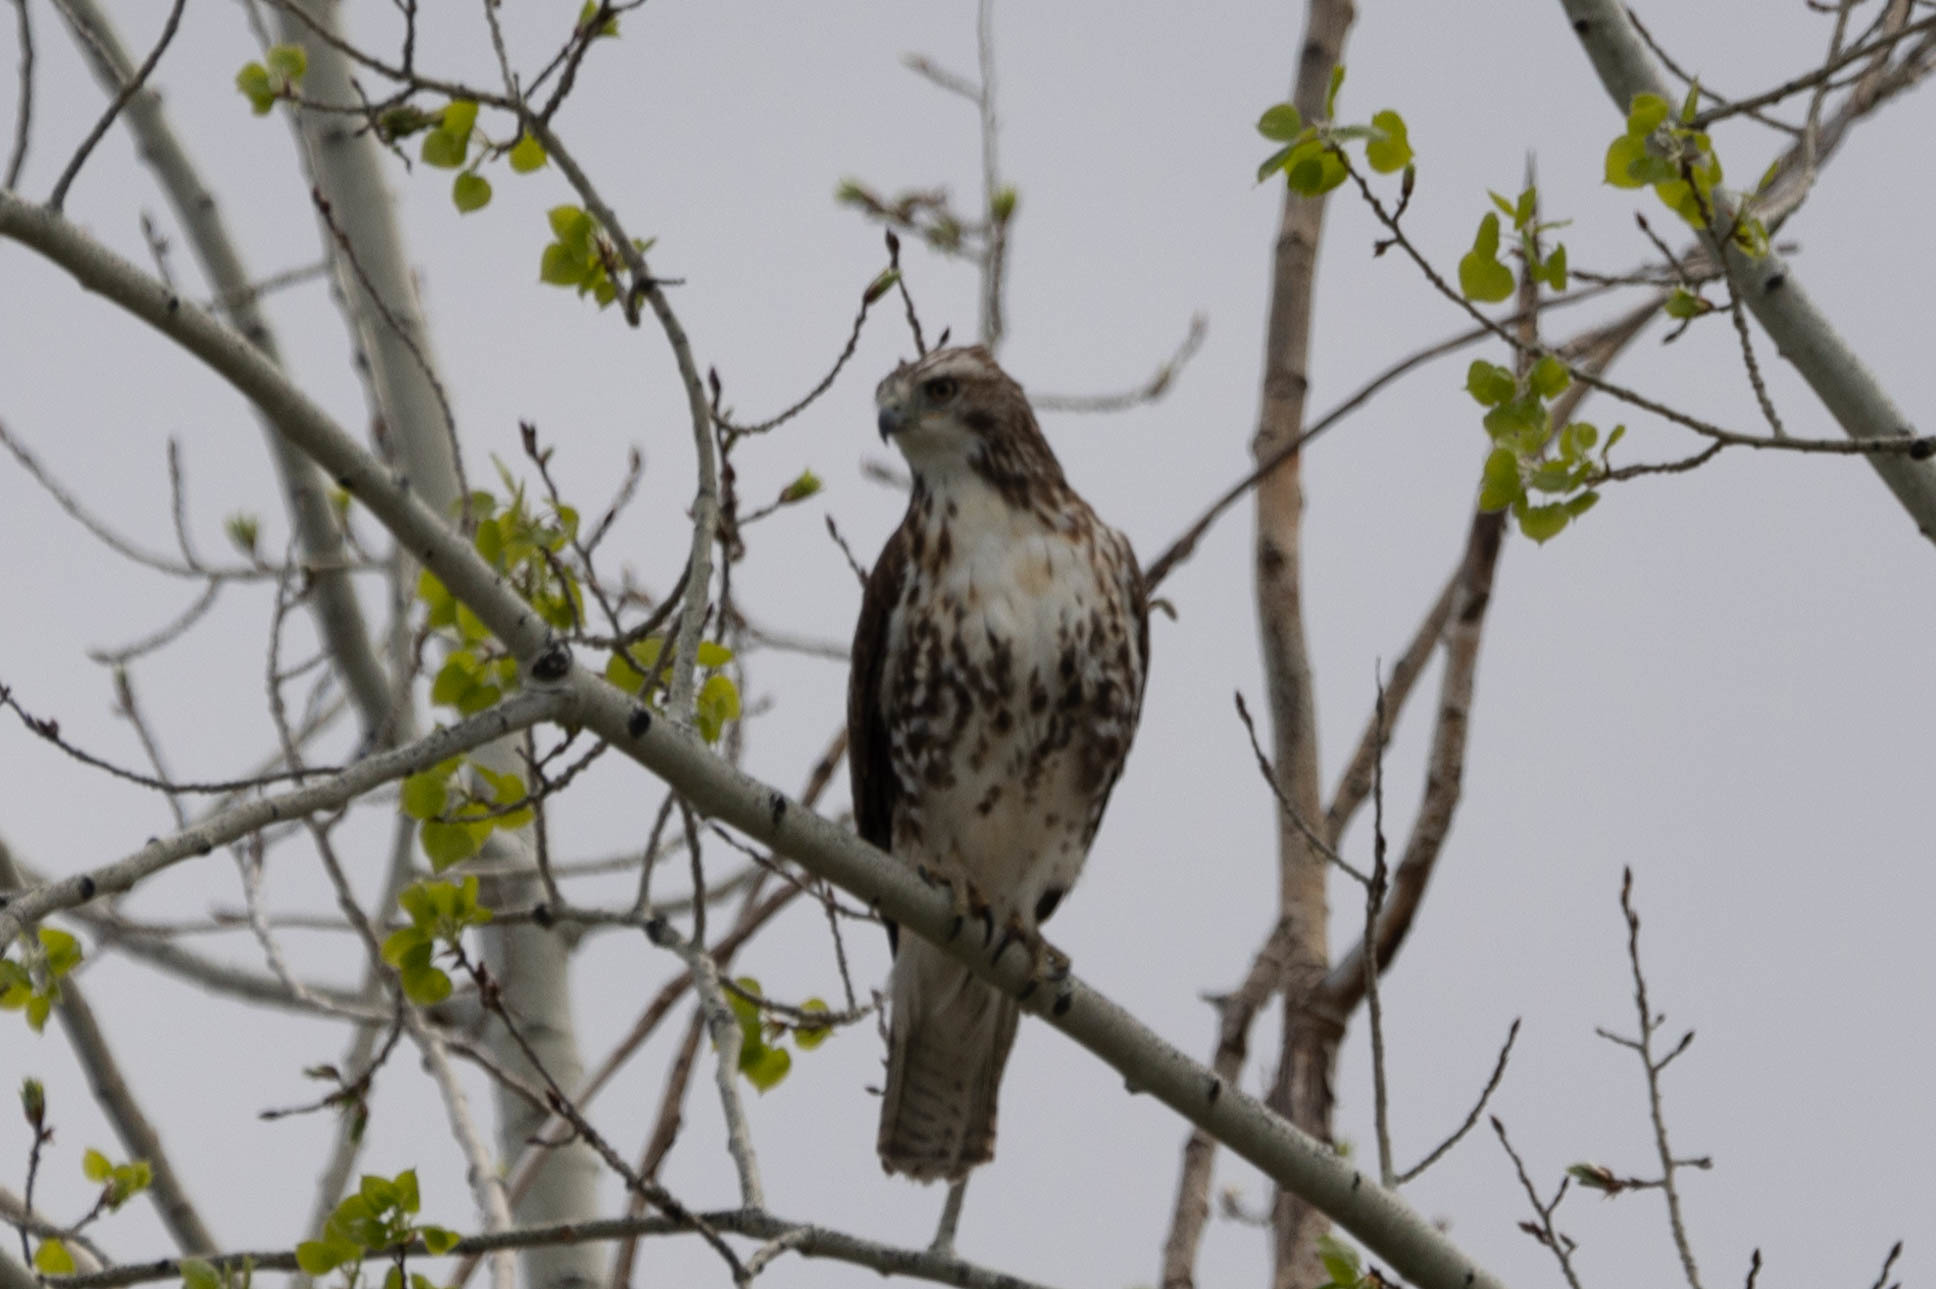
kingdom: Animalia
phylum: Chordata
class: Aves
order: Accipitriformes
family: Accipitridae
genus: Buteo
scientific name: Buteo jamaicensis
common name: Red-tailed hawk
